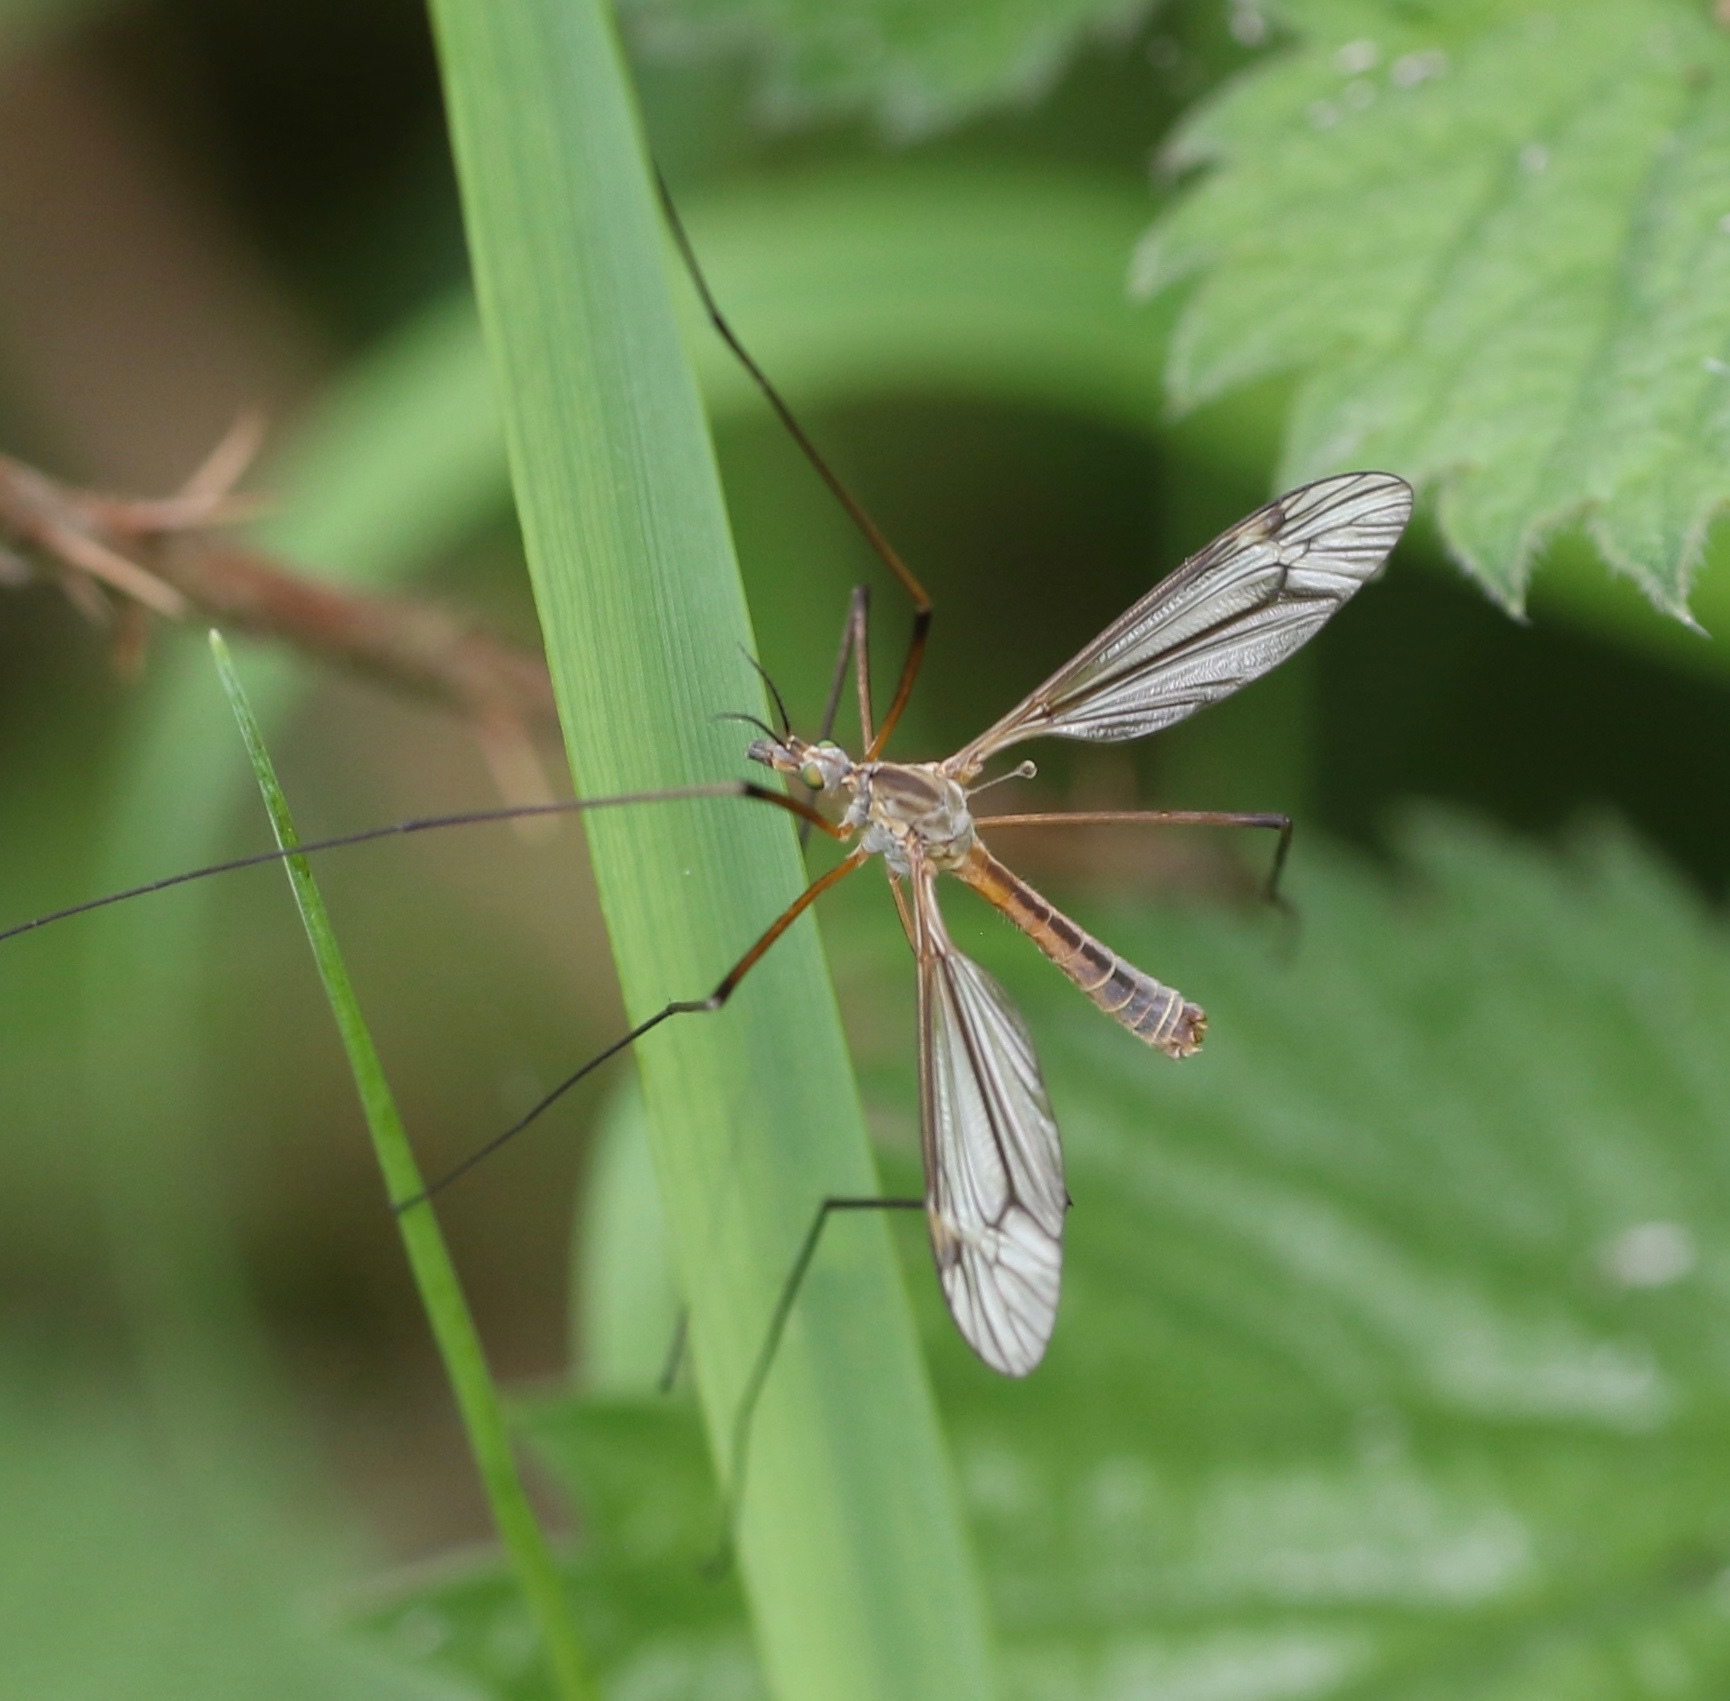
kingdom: Animalia
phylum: Arthropoda
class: Insecta
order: Diptera
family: Tipulidae
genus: Tipula
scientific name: Tipula vernalis
